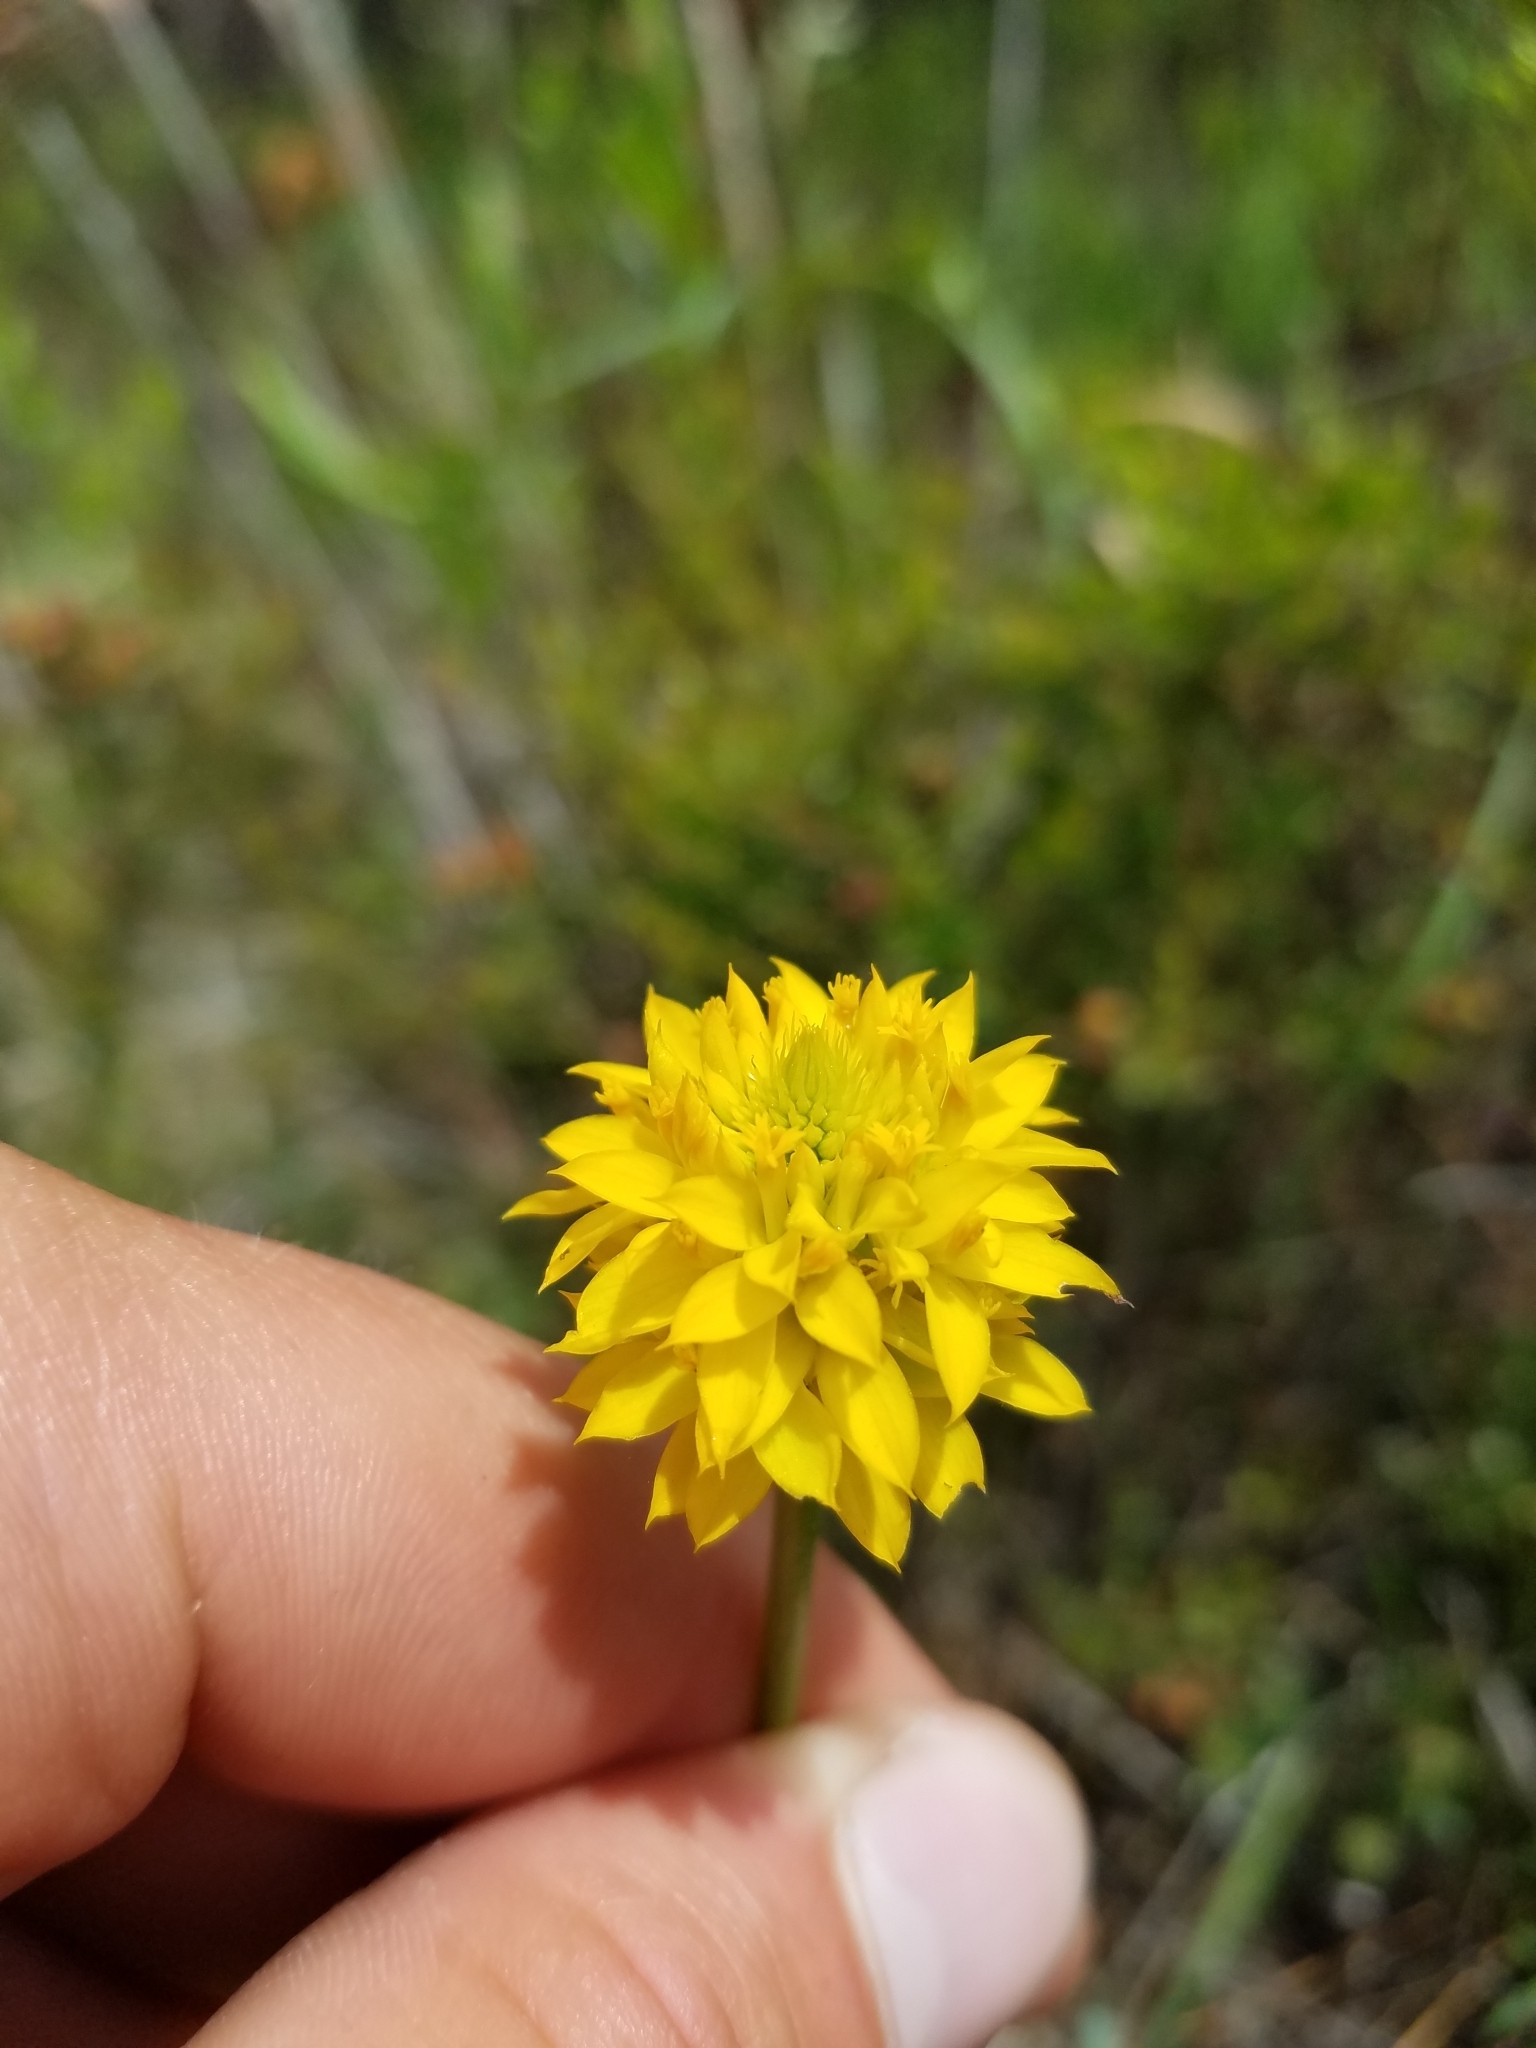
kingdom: Plantae
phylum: Tracheophyta
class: Magnoliopsida
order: Fabales
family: Polygalaceae
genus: Polygala
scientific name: Polygala rugelii
